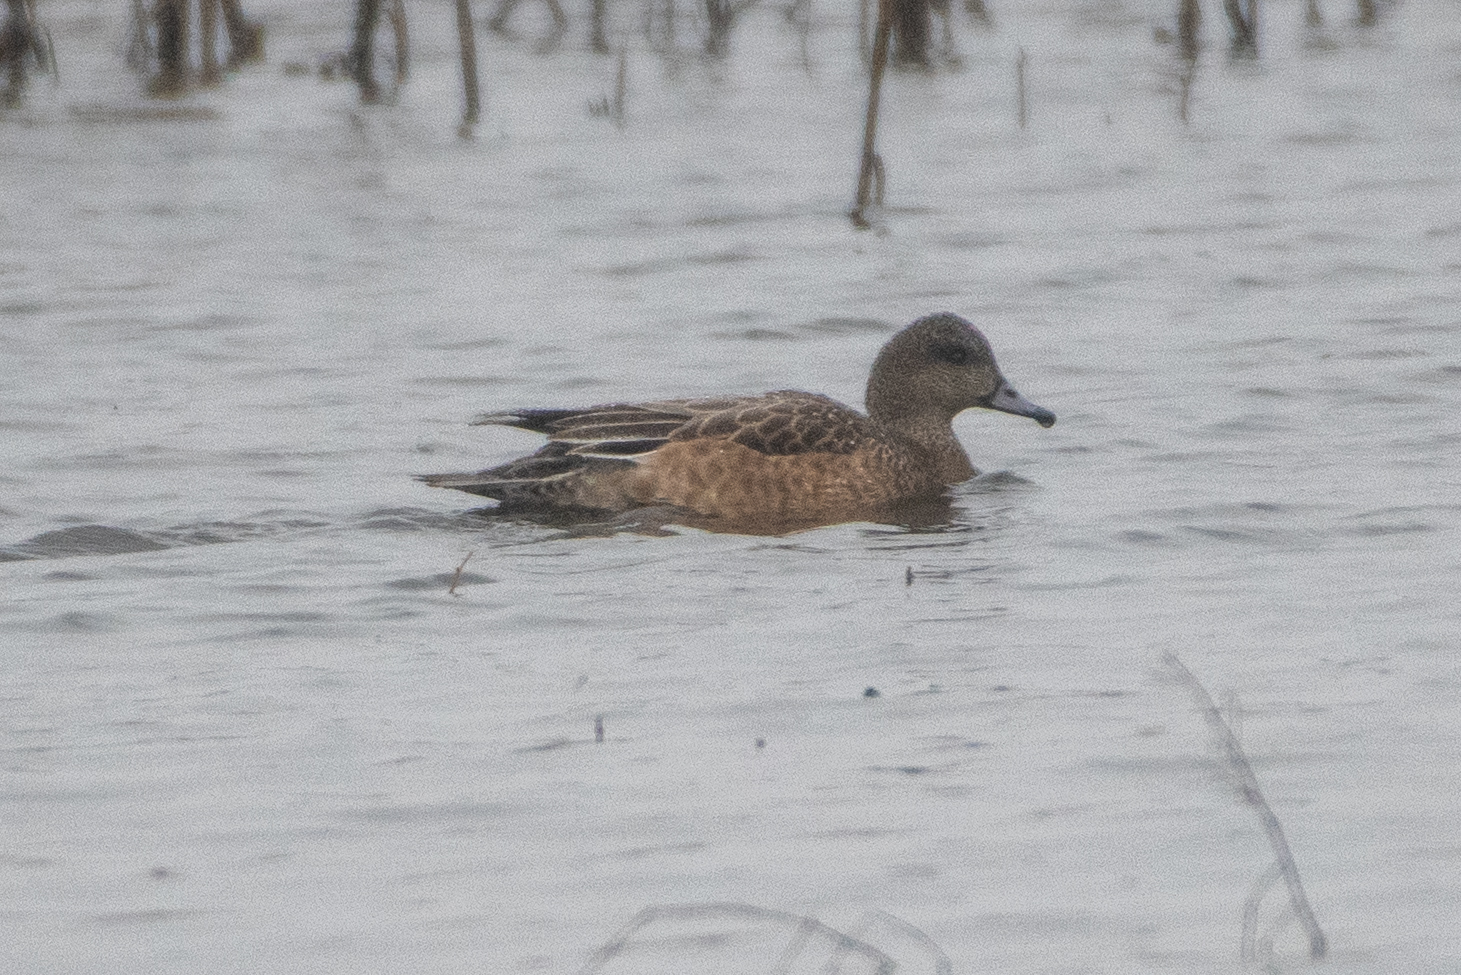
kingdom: Animalia
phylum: Chordata
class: Aves
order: Anseriformes
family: Anatidae
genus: Mareca
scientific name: Mareca americana
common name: American wigeon
